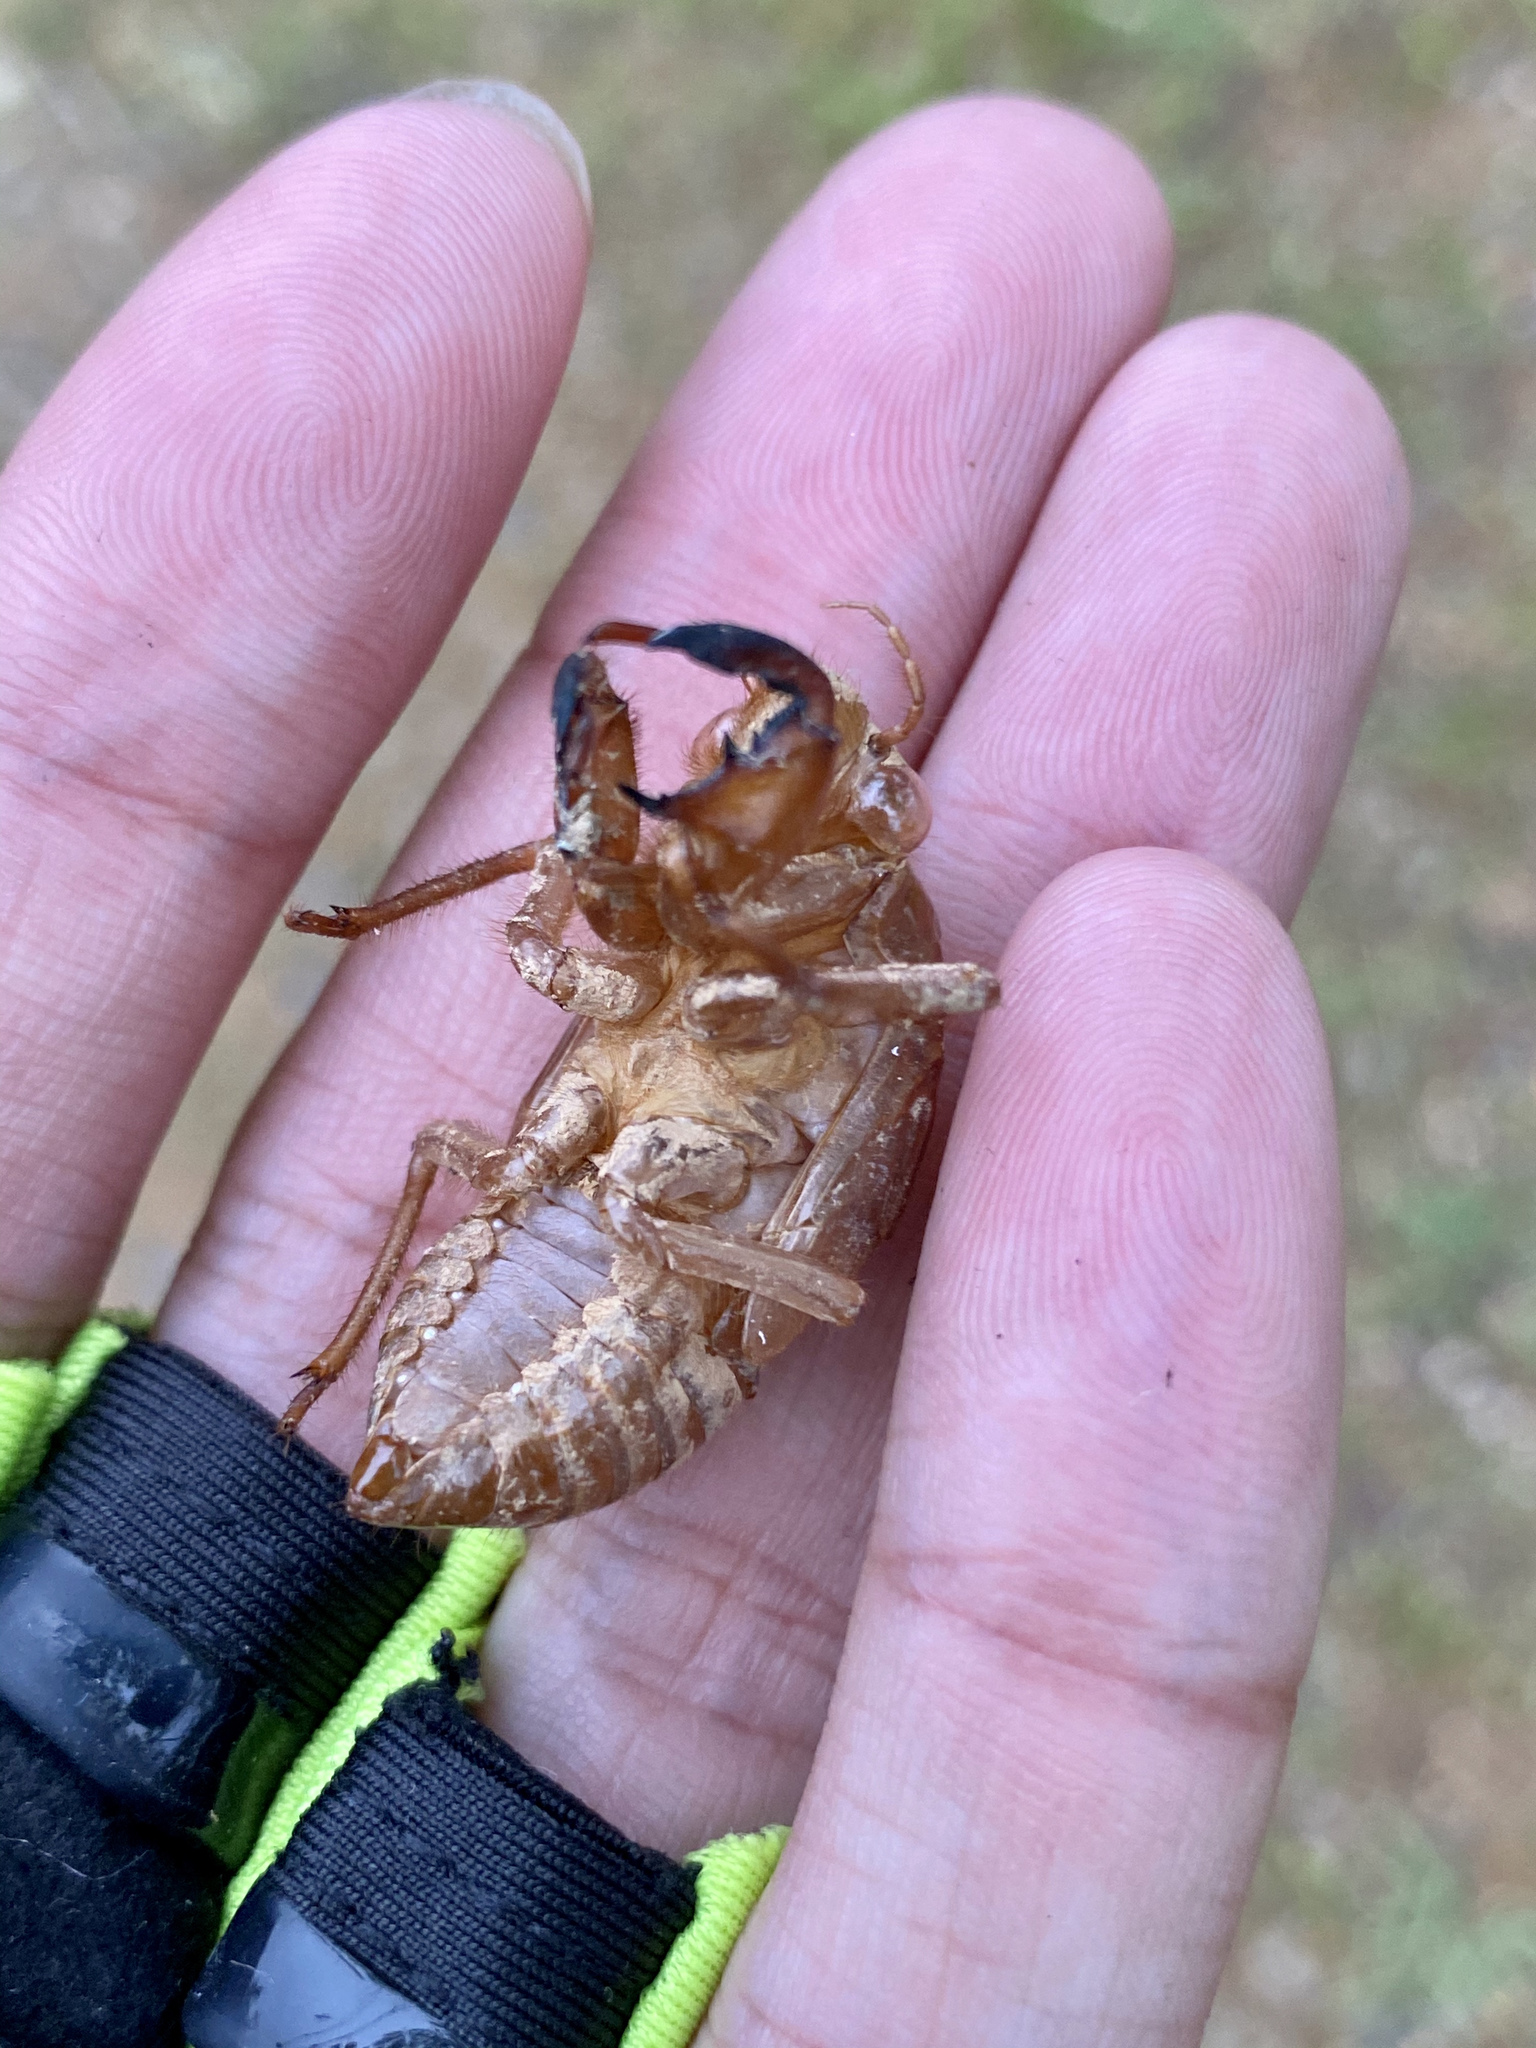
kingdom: Animalia
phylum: Arthropoda
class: Insecta
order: Hemiptera
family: Cicadidae
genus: Graptopsaltria
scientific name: Graptopsaltria nigrofuscata
